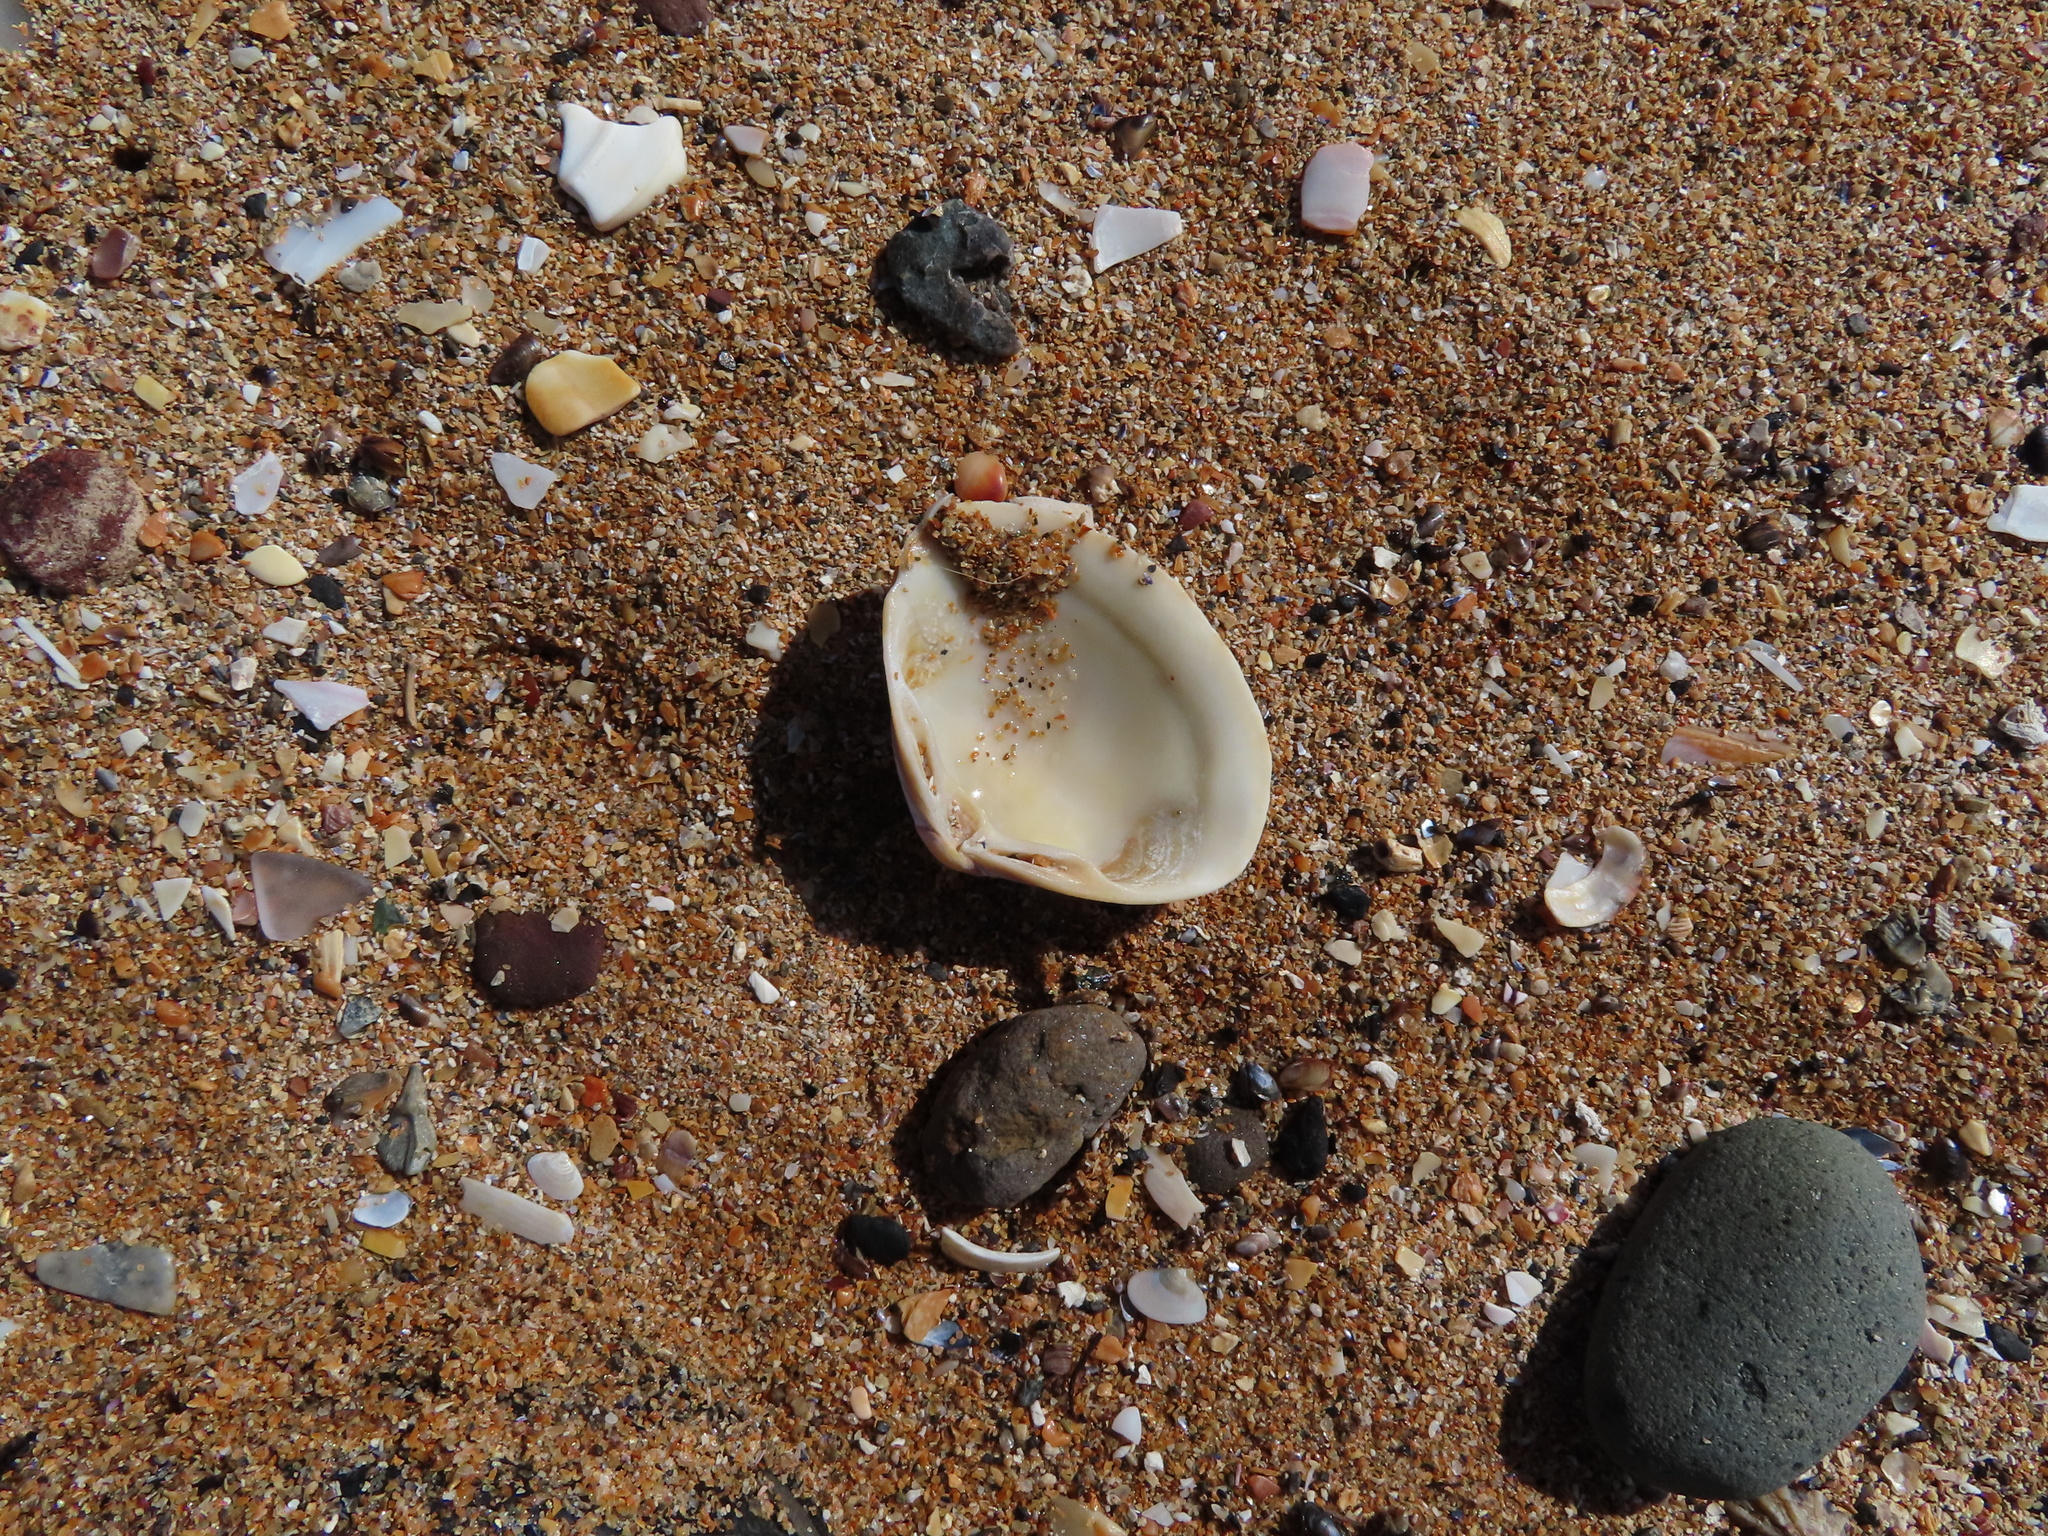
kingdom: Animalia
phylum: Mollusca
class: Bivalvia
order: Venerida
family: Mactridae
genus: Spisula
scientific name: Spisula solida
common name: Thick trough shell
